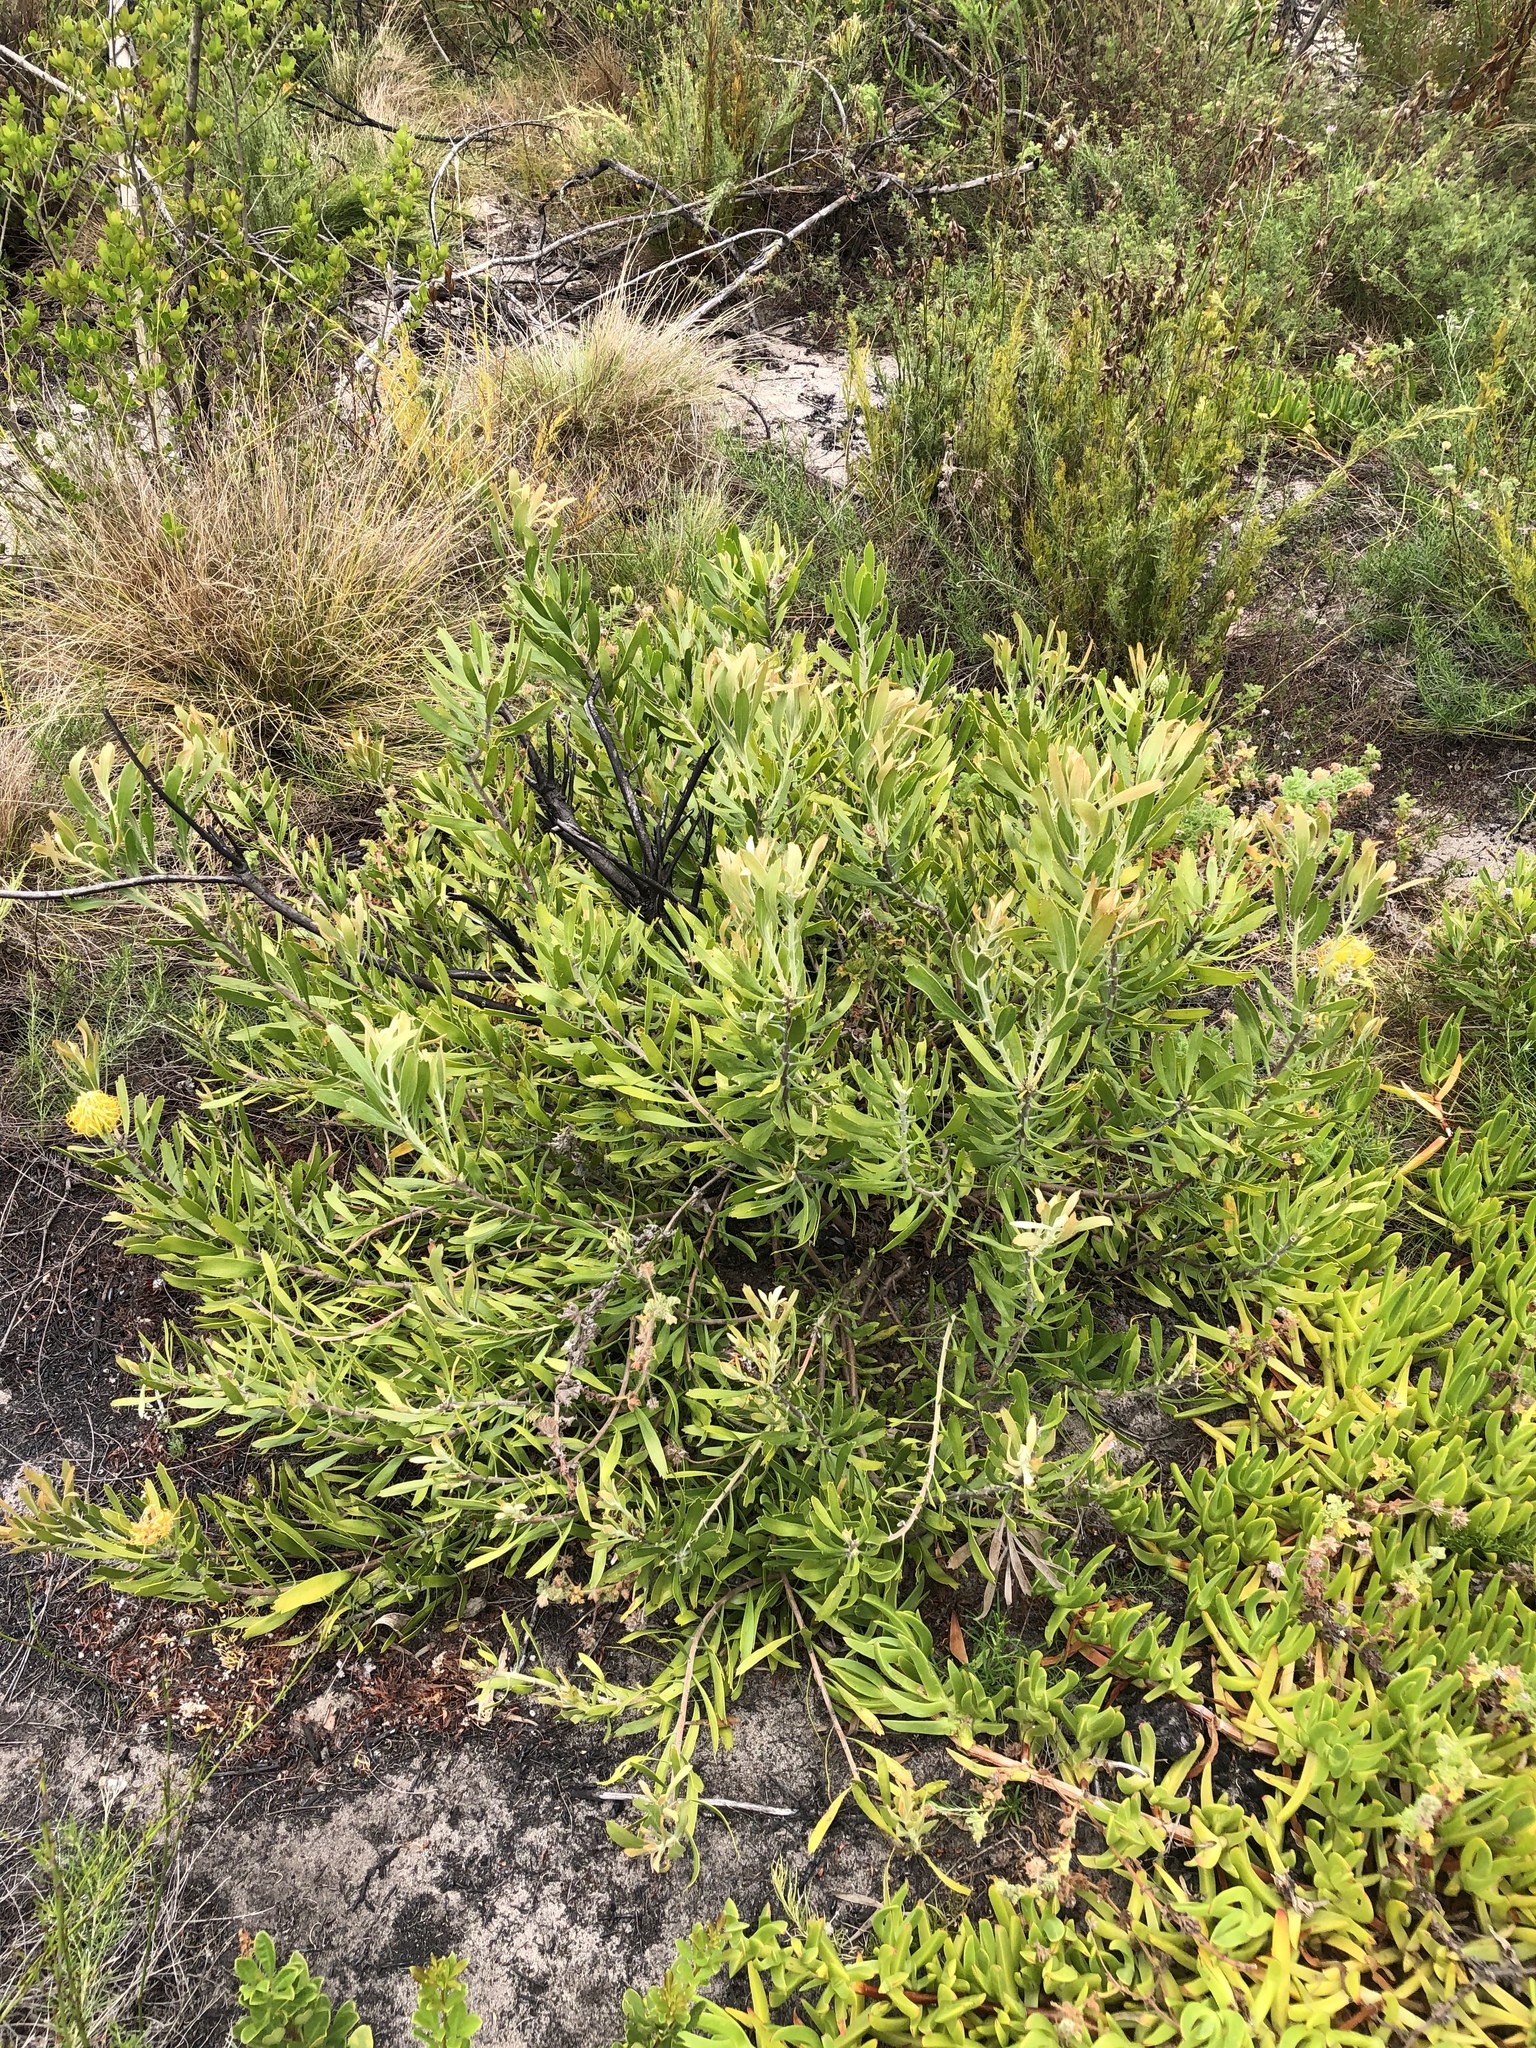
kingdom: Plantae
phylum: Tracheophyta
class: Magnoliopsida
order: Proteales
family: Proteaceae
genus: Leucospermum
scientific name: Leucospermum cuneiforme
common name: Common pincushion
